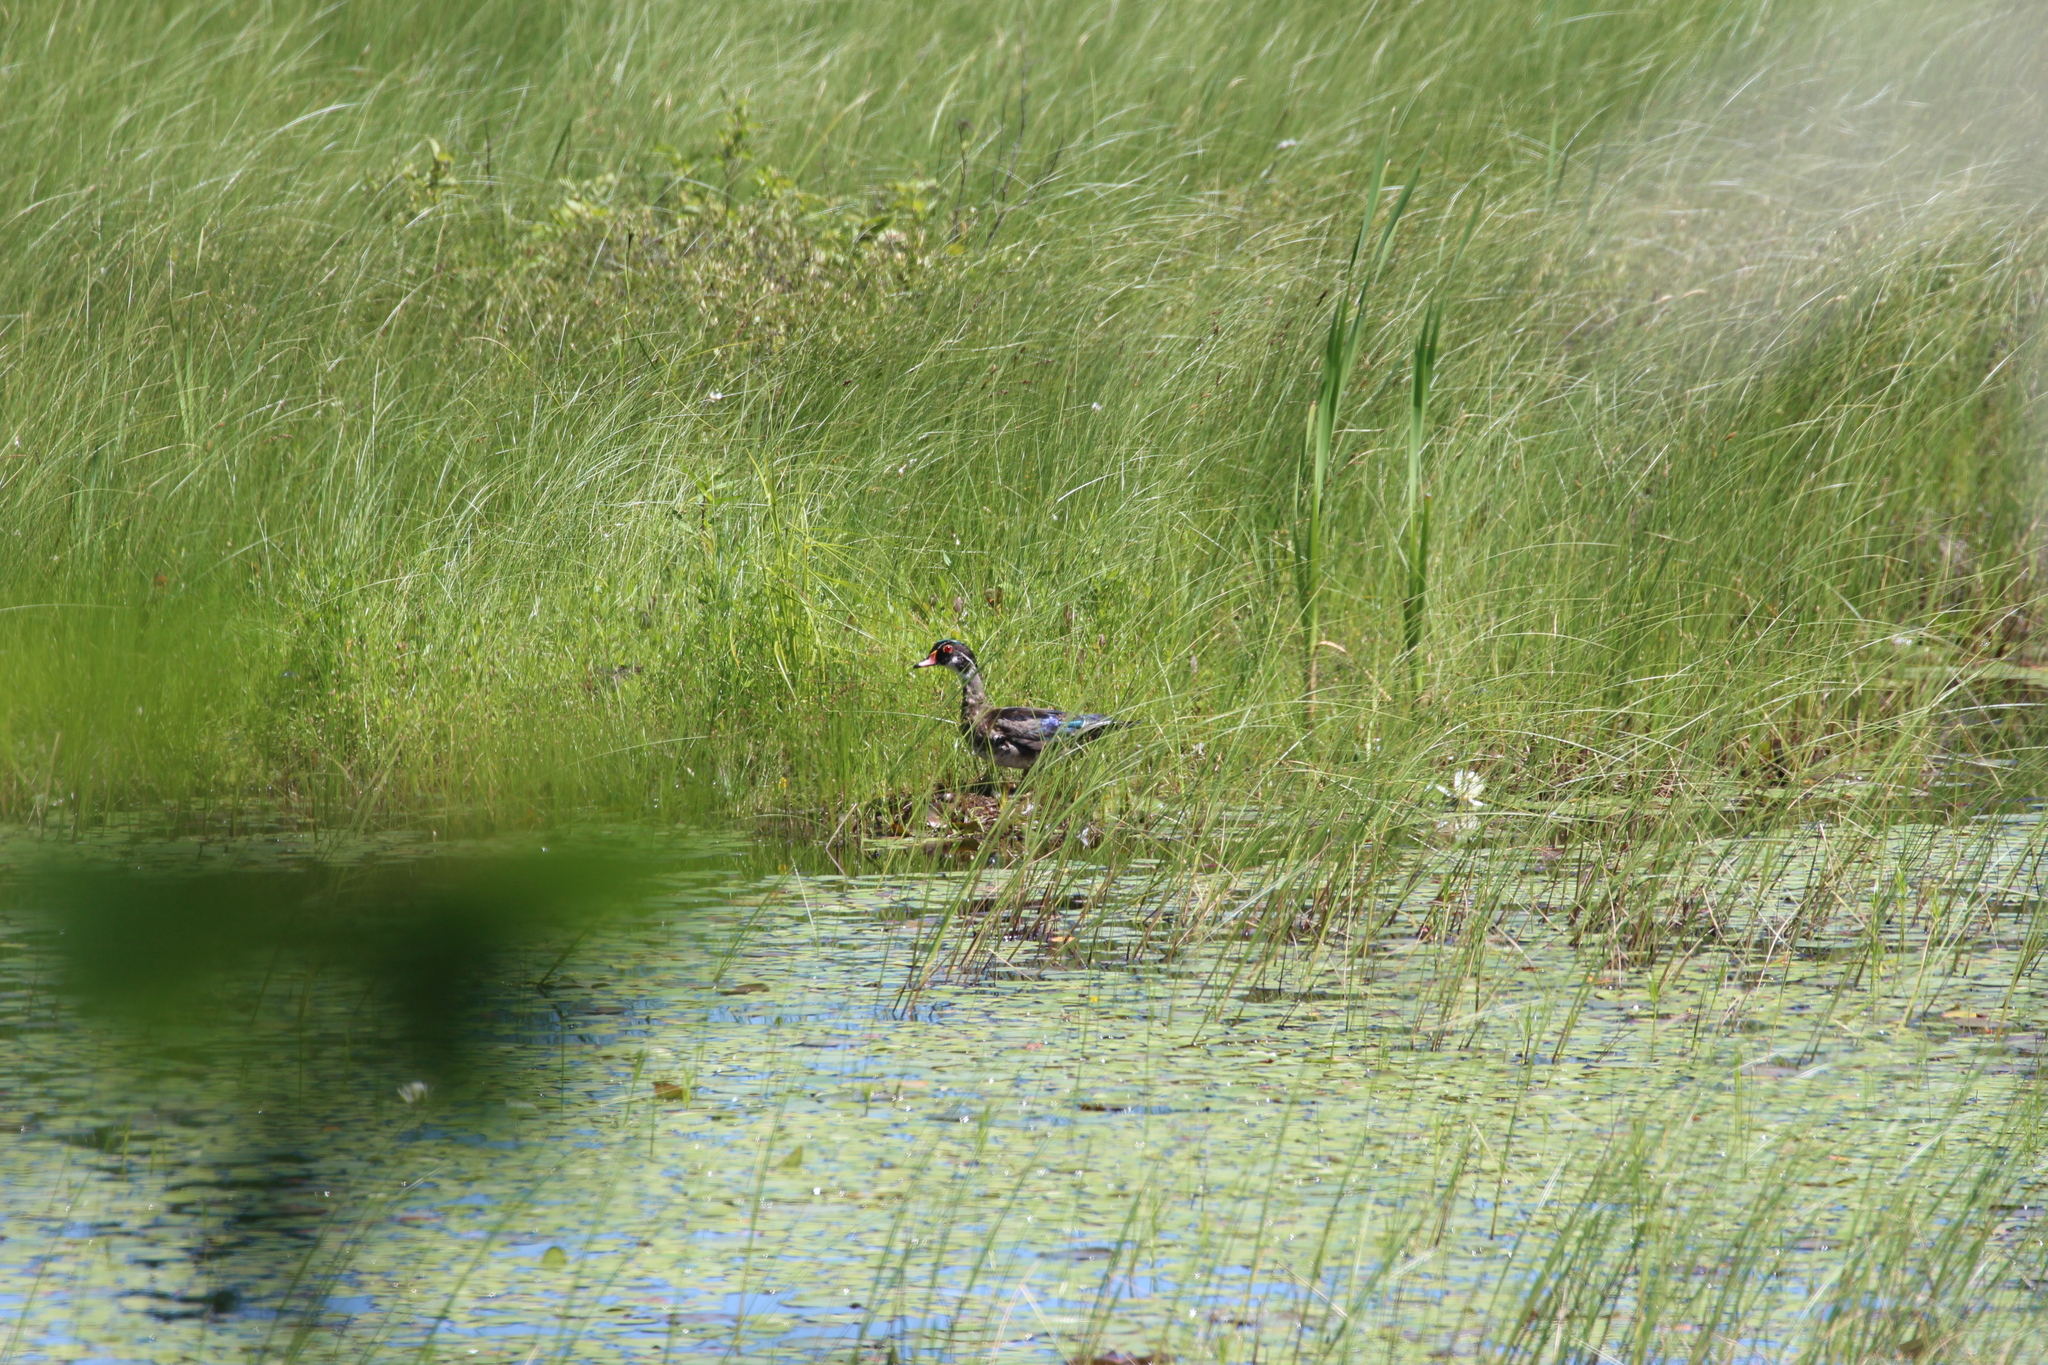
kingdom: Animalia
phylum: Chordata
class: Aves
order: Anseriformes
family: Anatidae
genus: Aix
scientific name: Aix sponsa
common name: Wood duck
